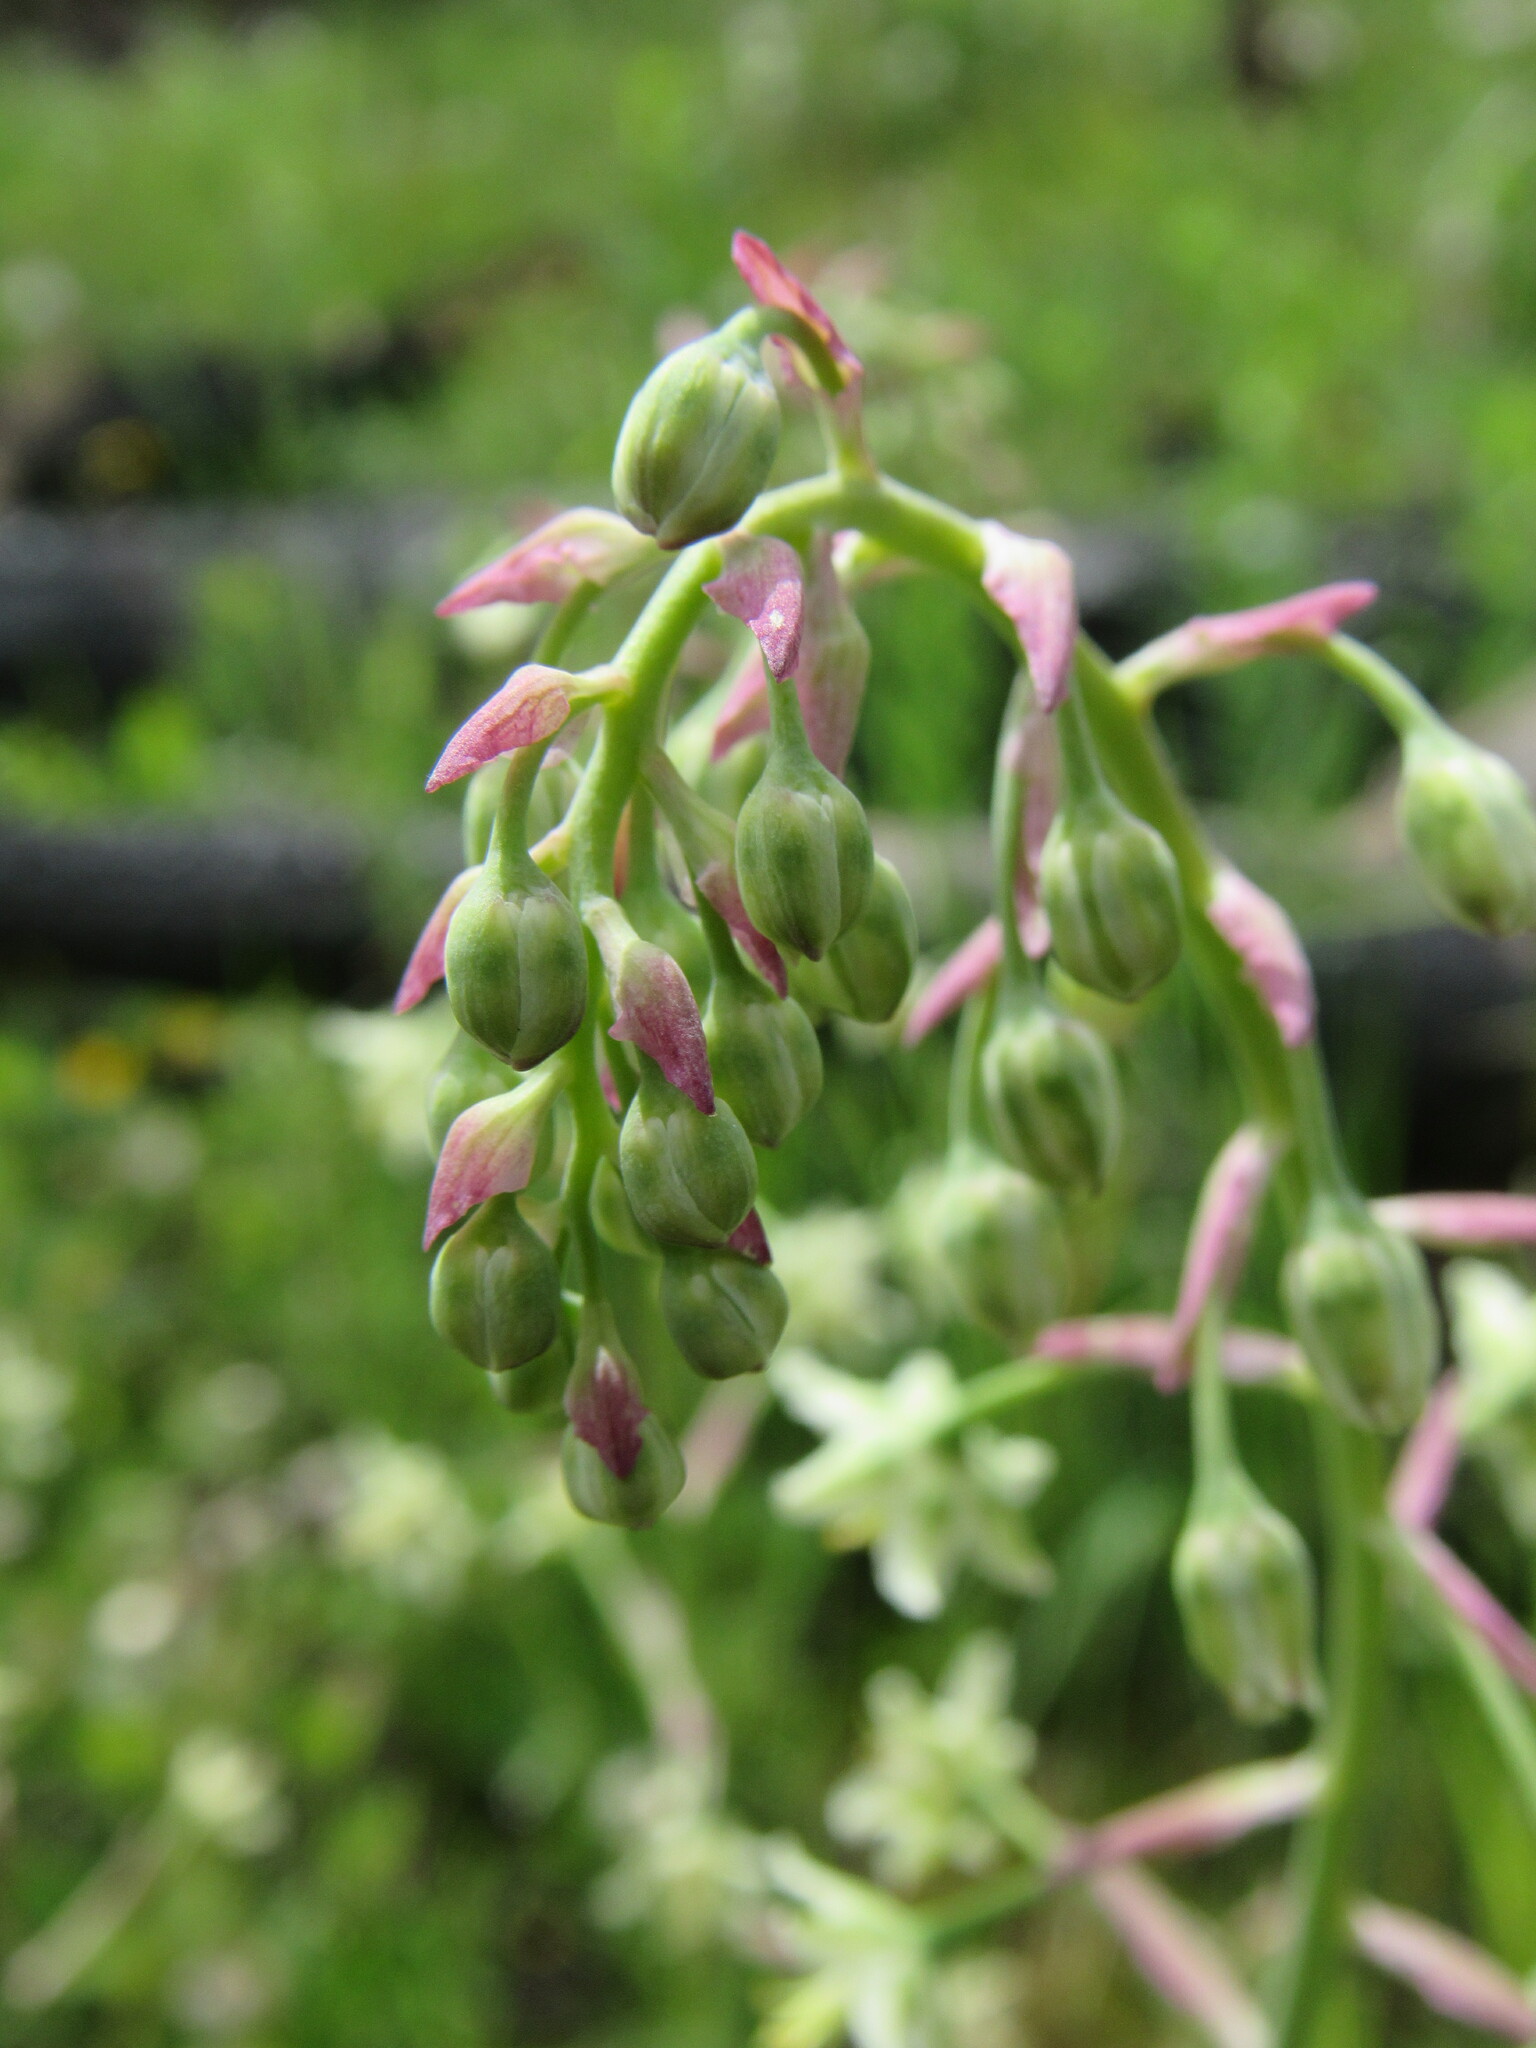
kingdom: Plantae
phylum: Tracheophyta
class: Liliopsida
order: Liliales
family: Melanthiaceae
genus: Anticlea
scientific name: Anticlea elegans
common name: Mountain death camas
